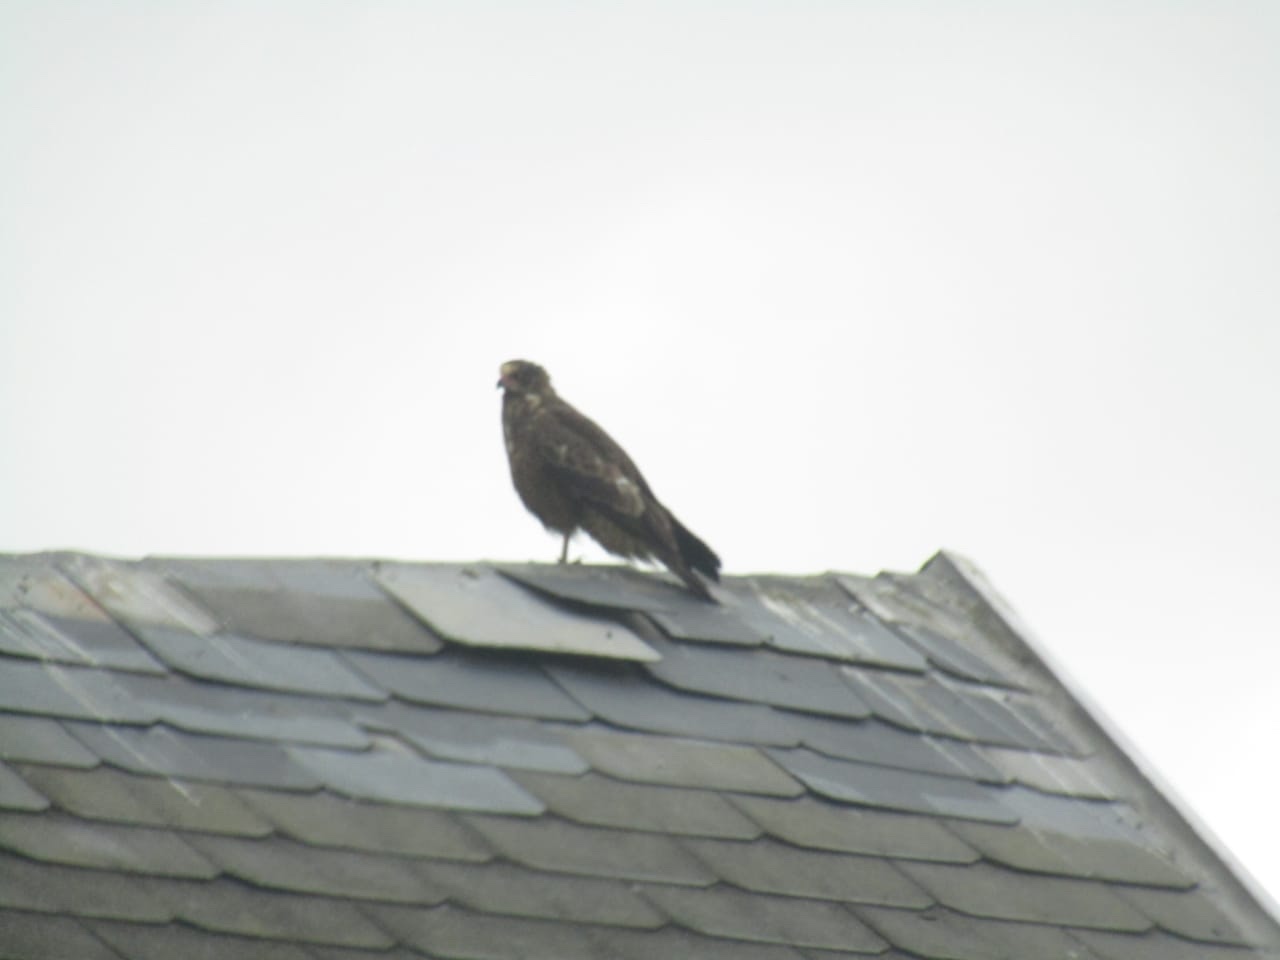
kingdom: Animalia
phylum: Chordata
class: Aves
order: Accipitriformes
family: Accipitridae
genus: Polyboroides
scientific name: Polyboroides typus
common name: African harrier-hawk
